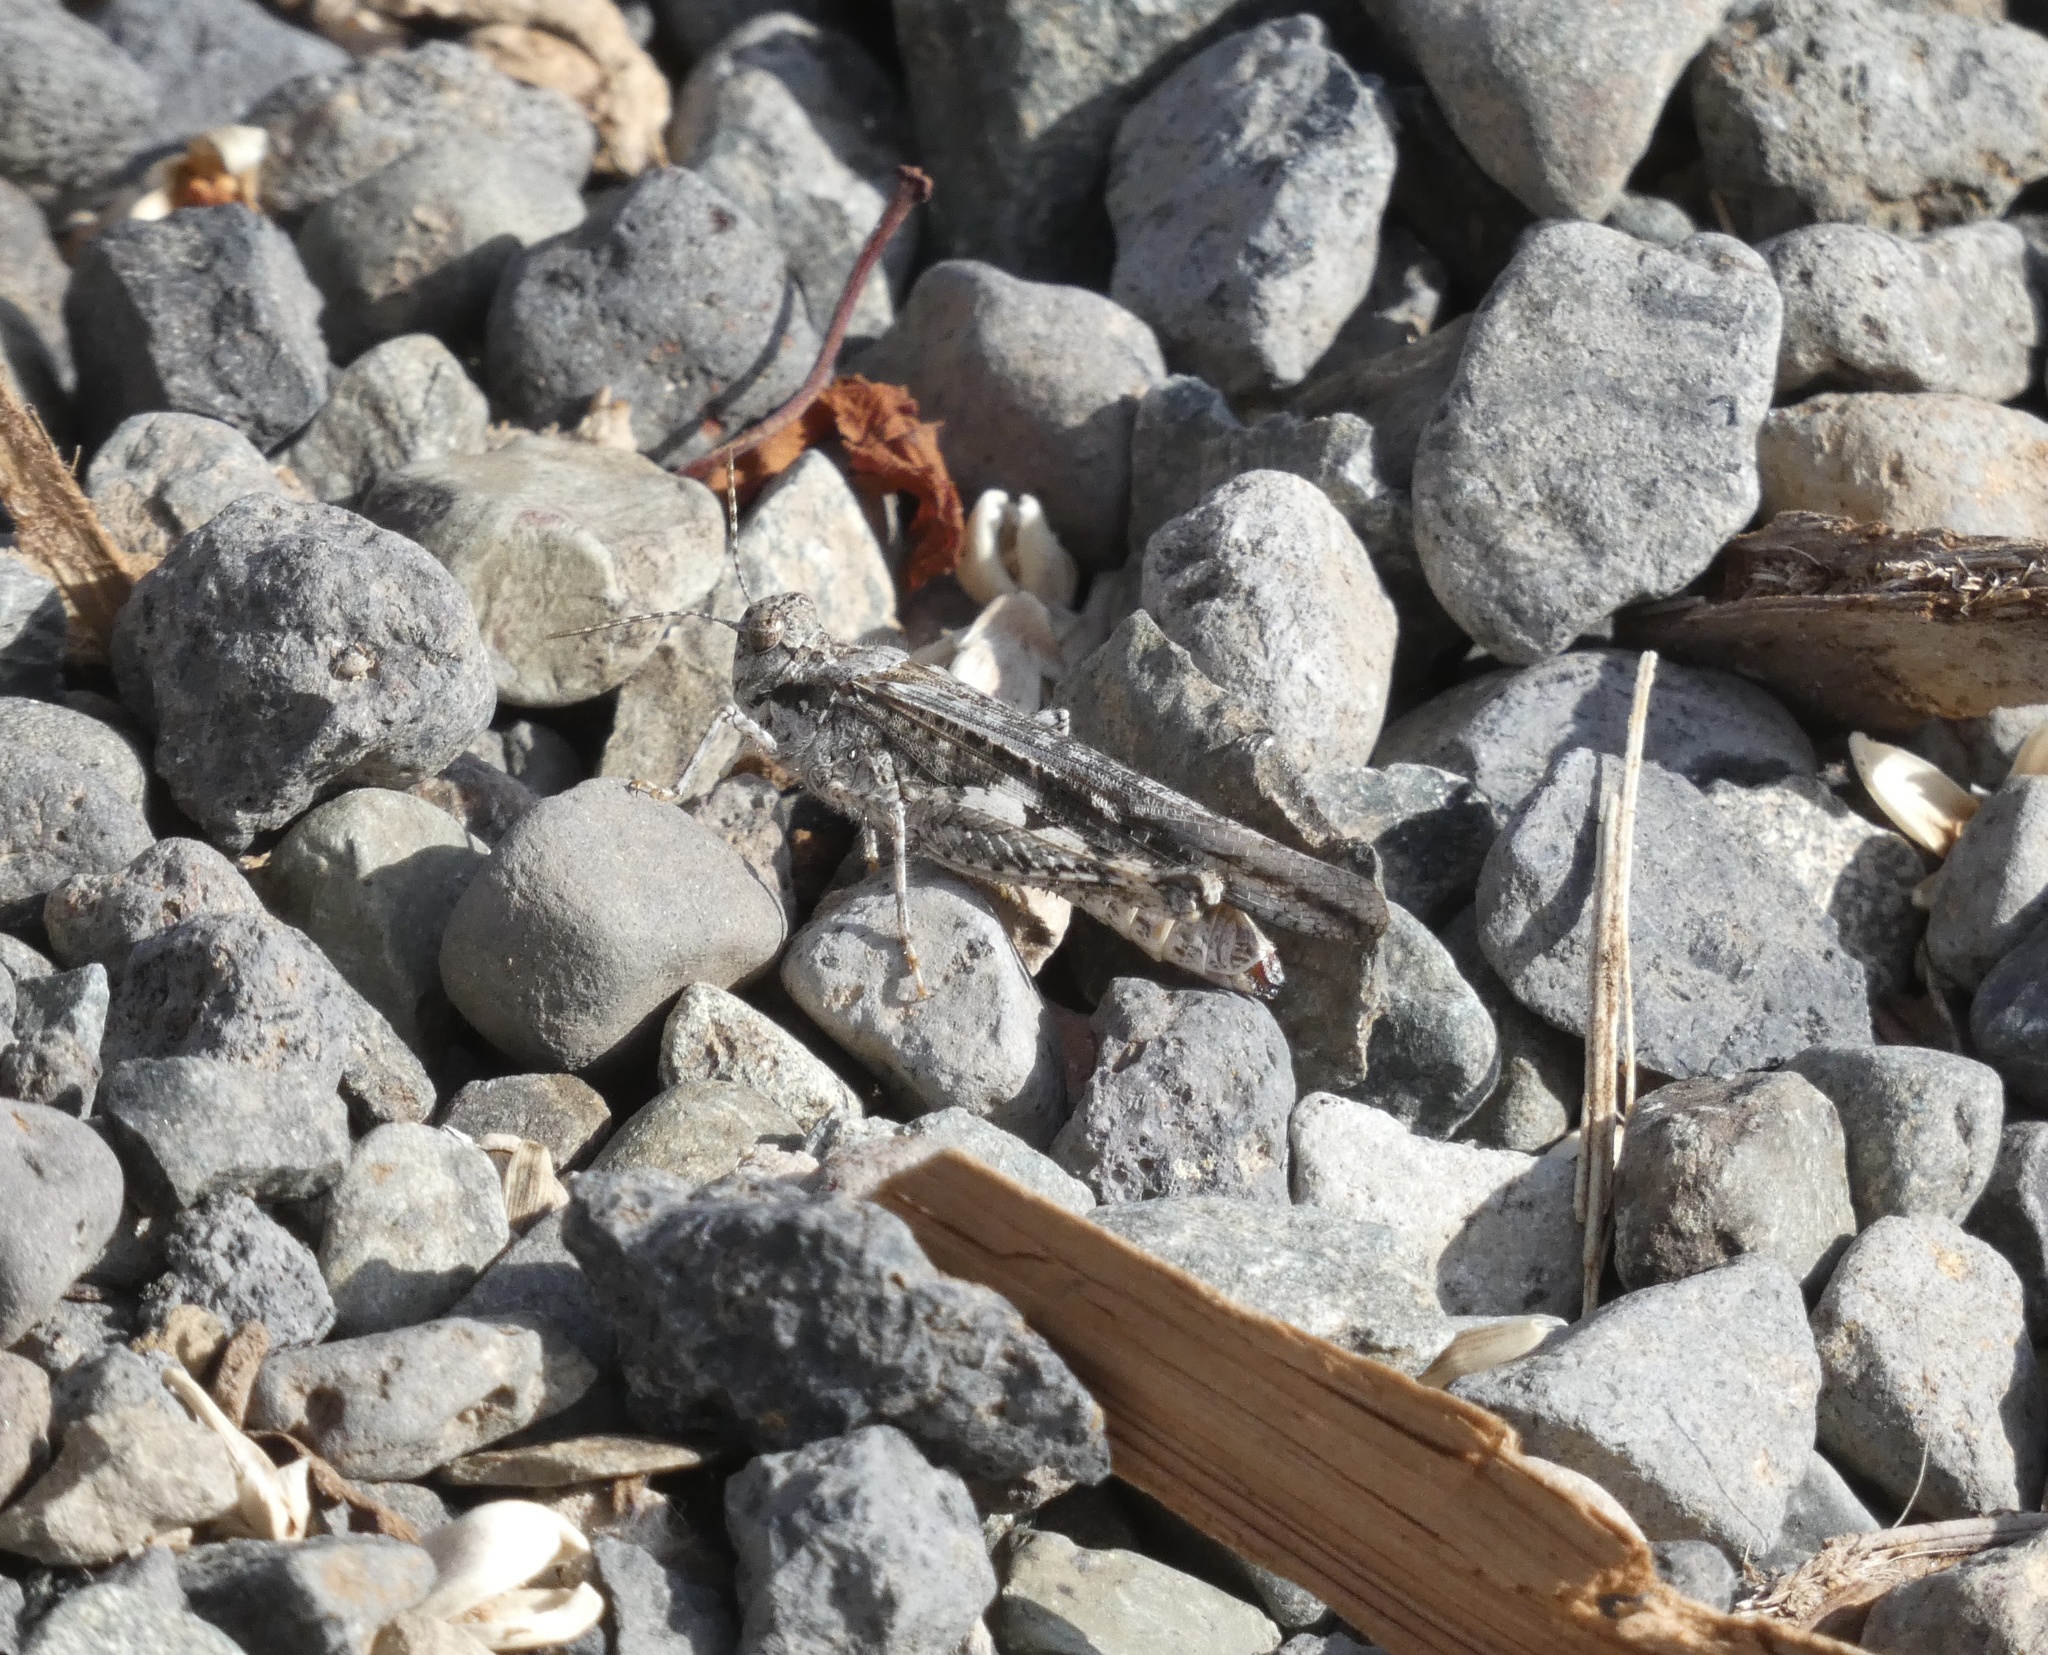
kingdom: Animalia
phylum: Arthropoda
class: Insecta
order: Orthoptera
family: Acrididae
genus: Acrotylus
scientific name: Acrotylus insubricus
